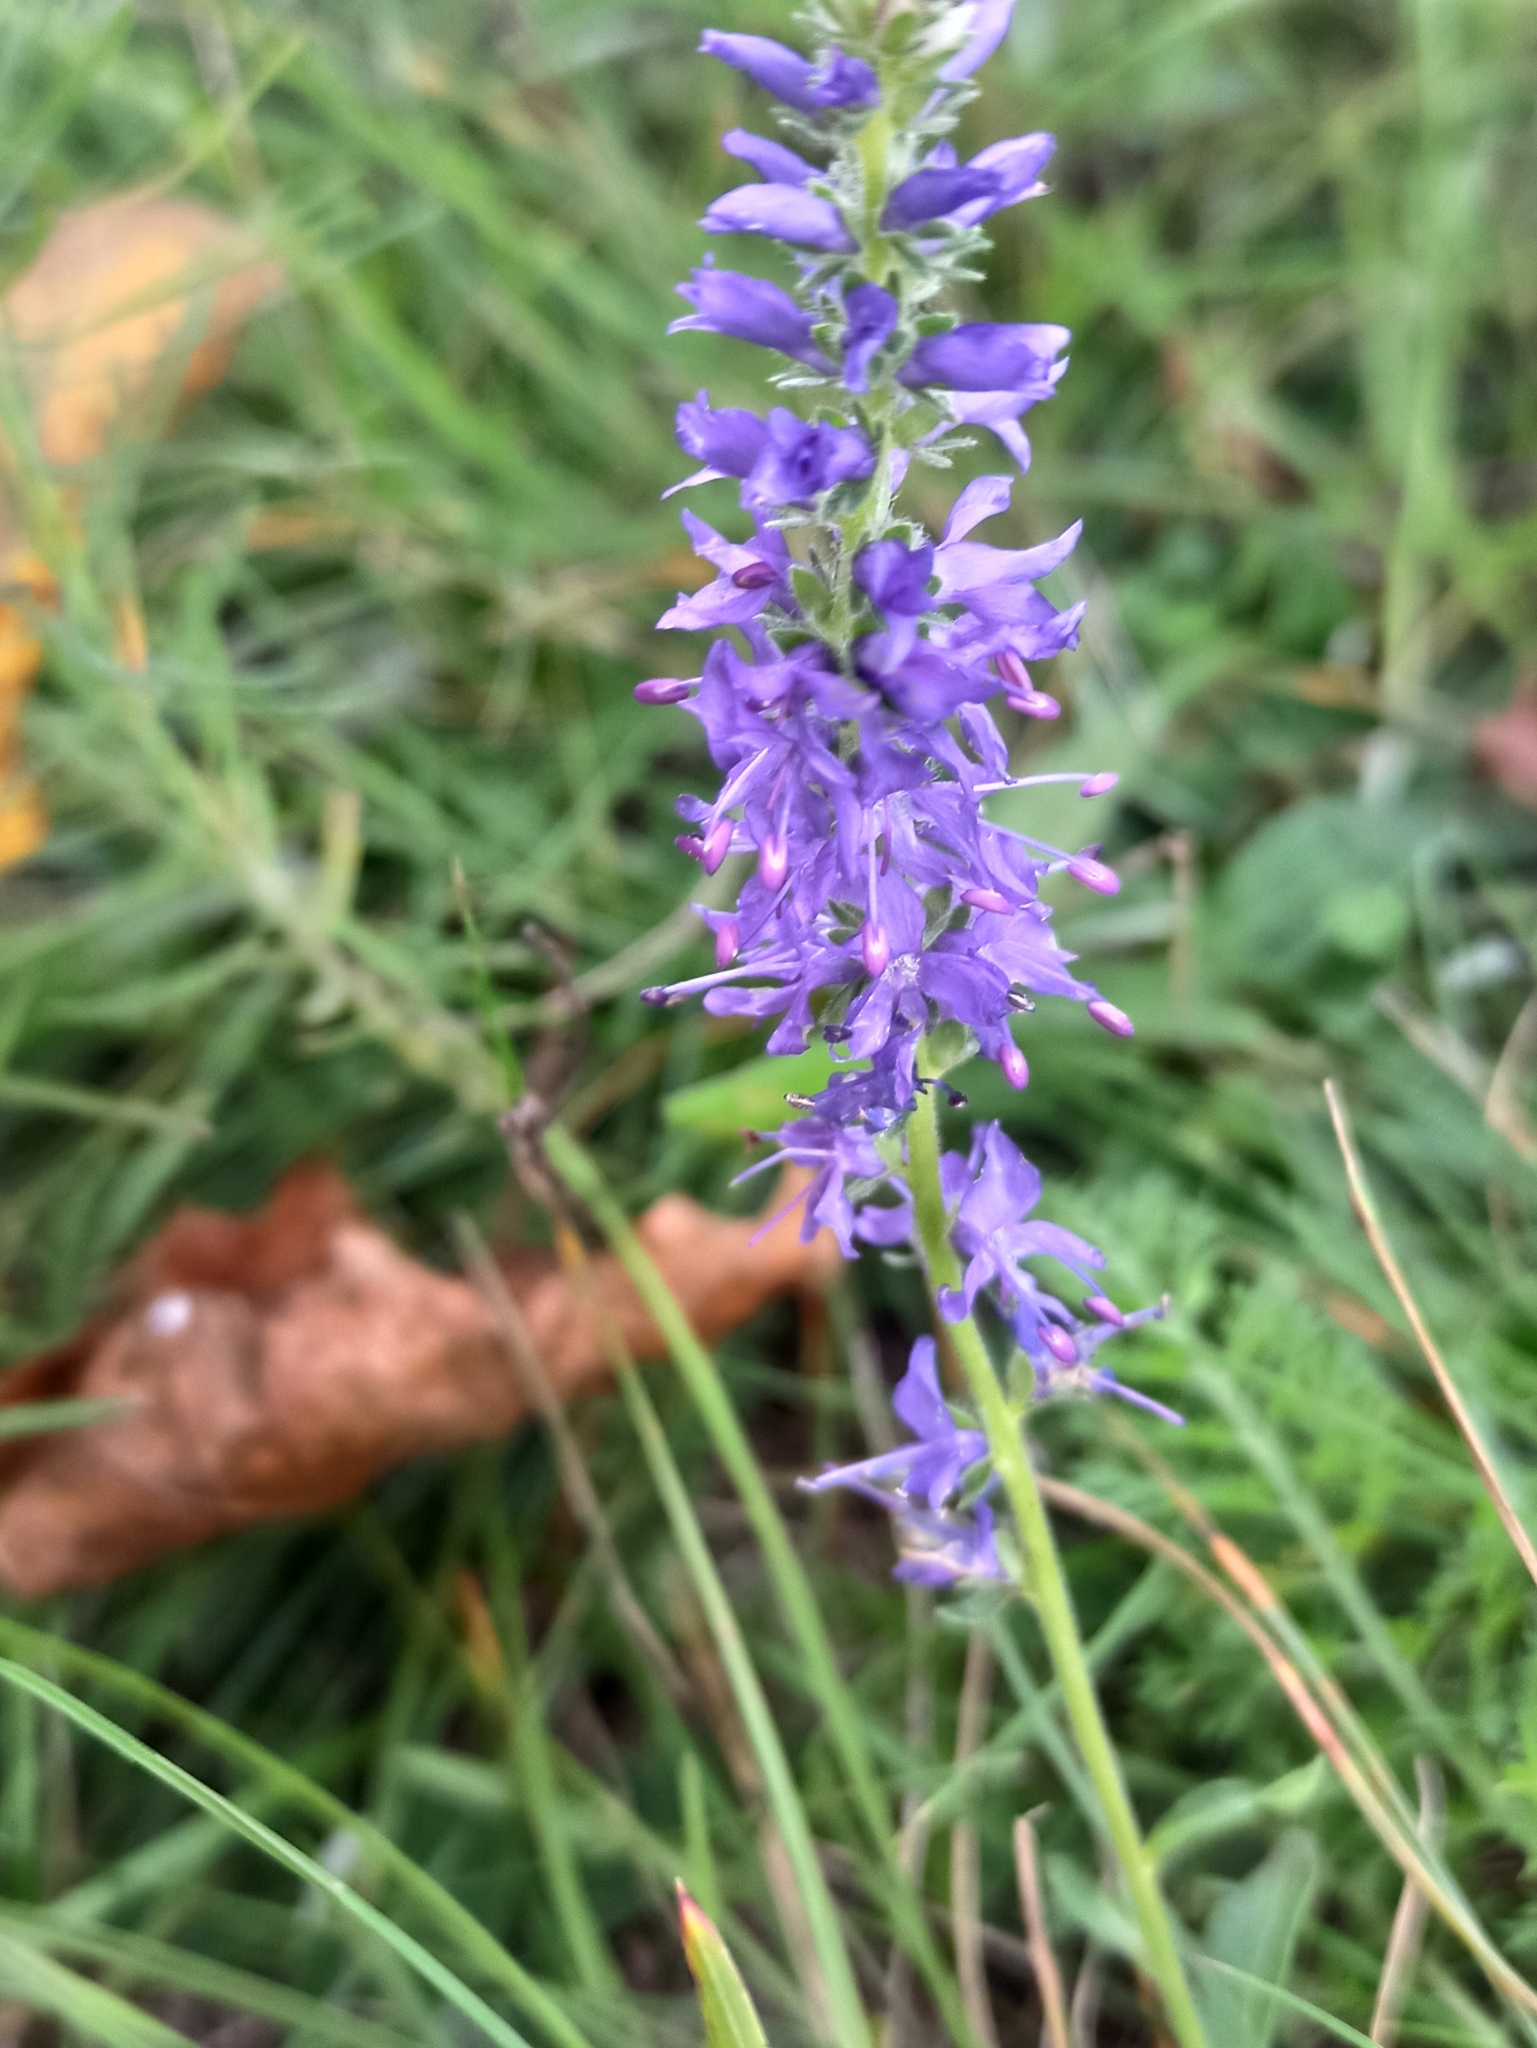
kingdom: Plantae
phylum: Tracheophyta
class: Magnoliopsida
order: Lamiales
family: Plantaginaceae
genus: Veronica
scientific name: Veronica spicata
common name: Spiked speedwell
